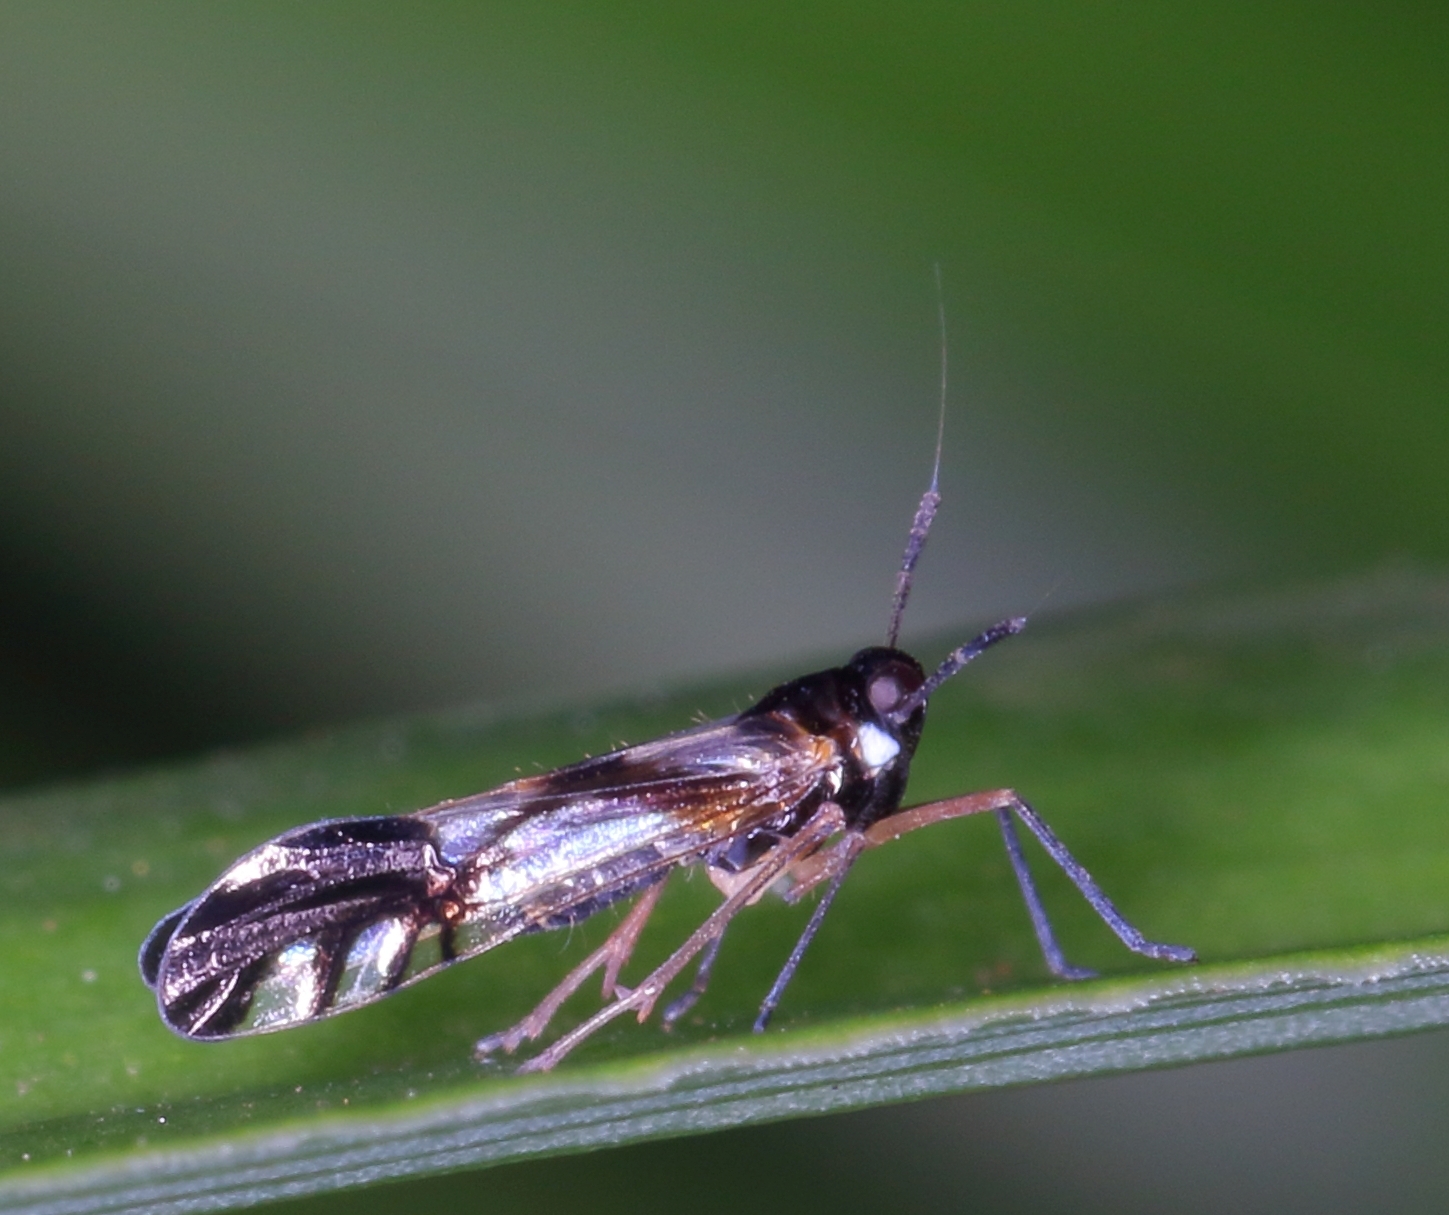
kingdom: Animalia
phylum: Arthropoda
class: Insecta
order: Hemiptera
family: Delphacidae
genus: Hapalomelus
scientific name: Hapalomelus flavipes
